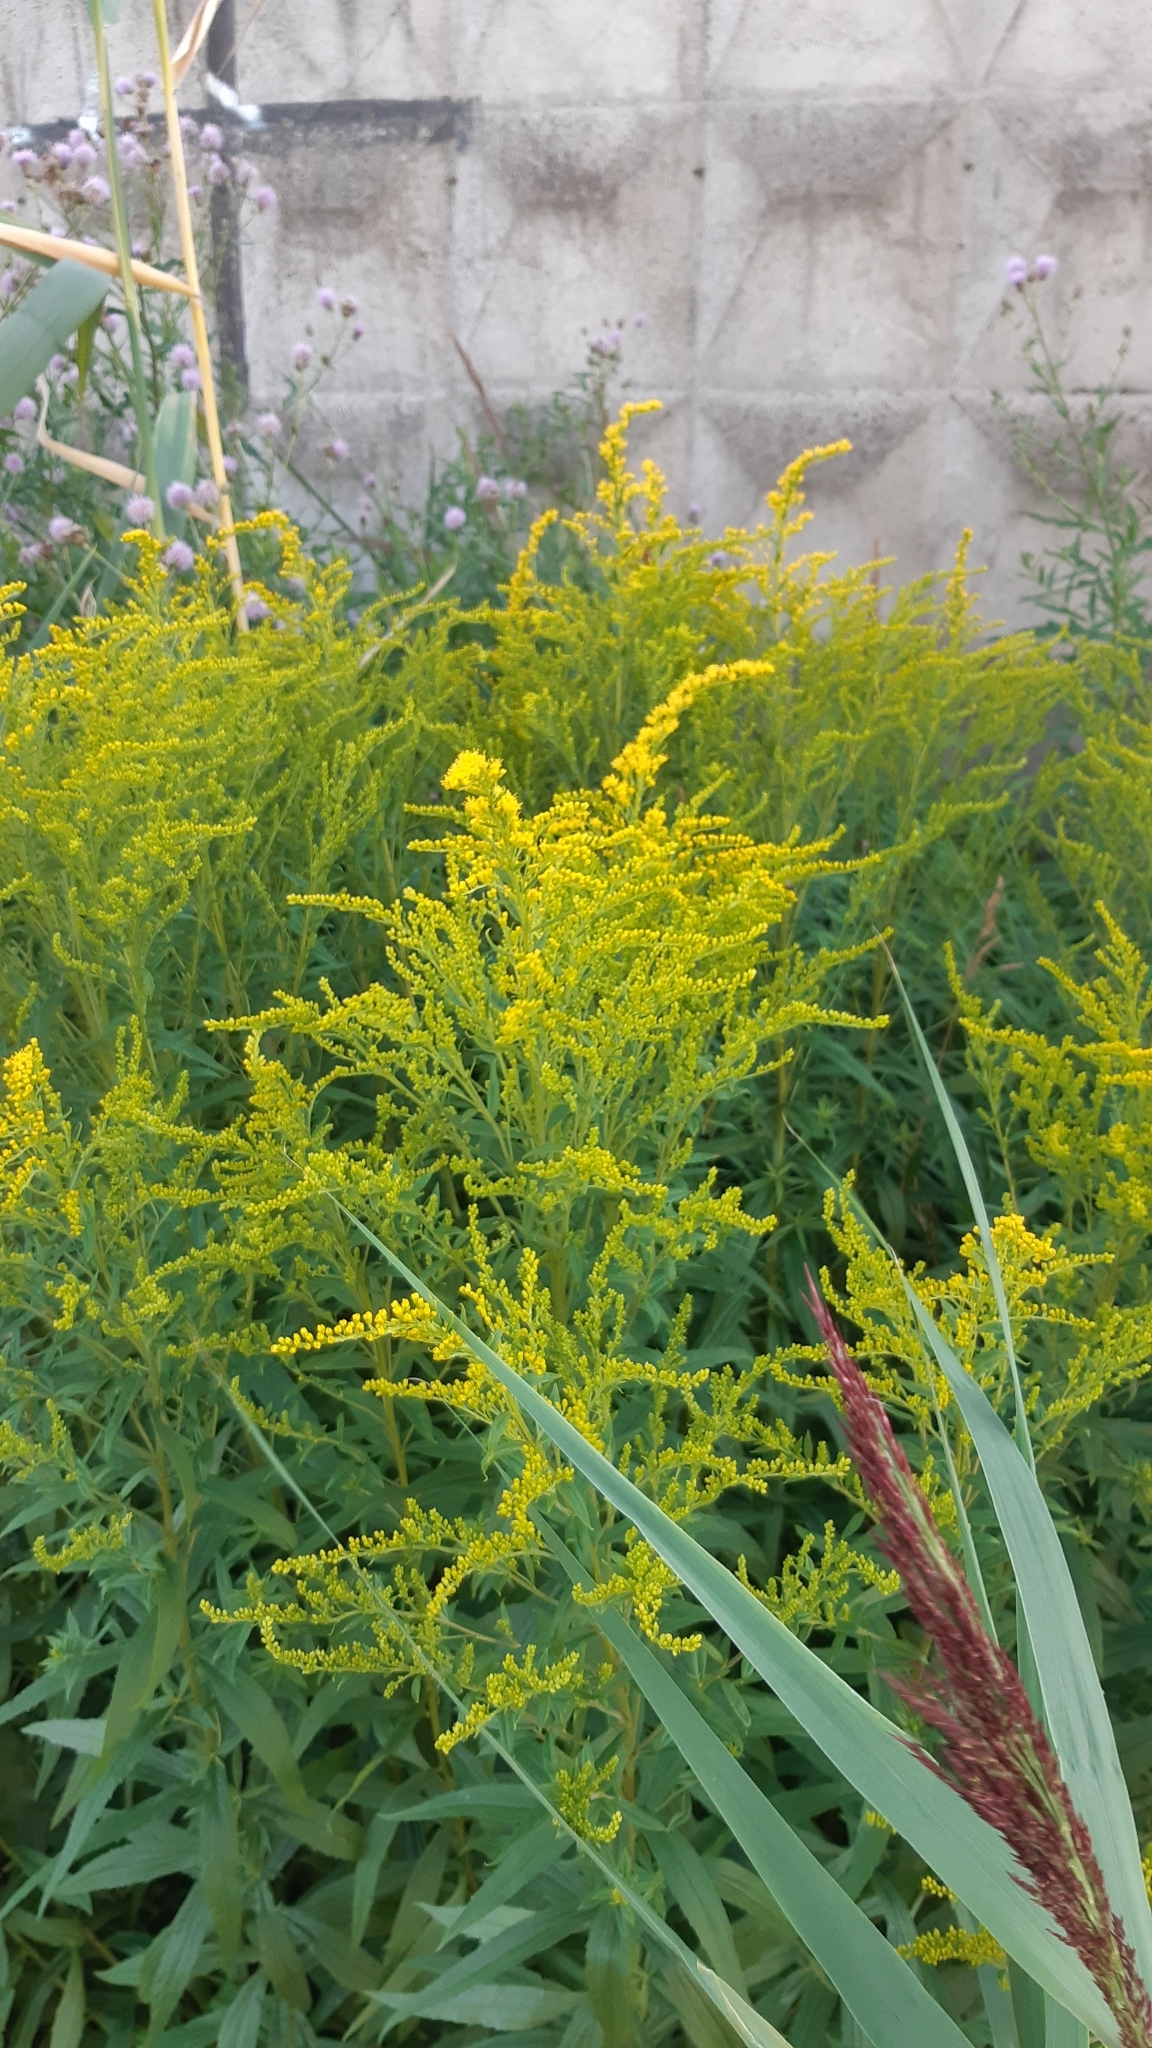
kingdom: Plantae
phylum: Tracheophyta
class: Magnoliopsida
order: Asterales
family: Asteraceae
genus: Solidago
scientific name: Solidago canadensis
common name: Canada goldenrod
